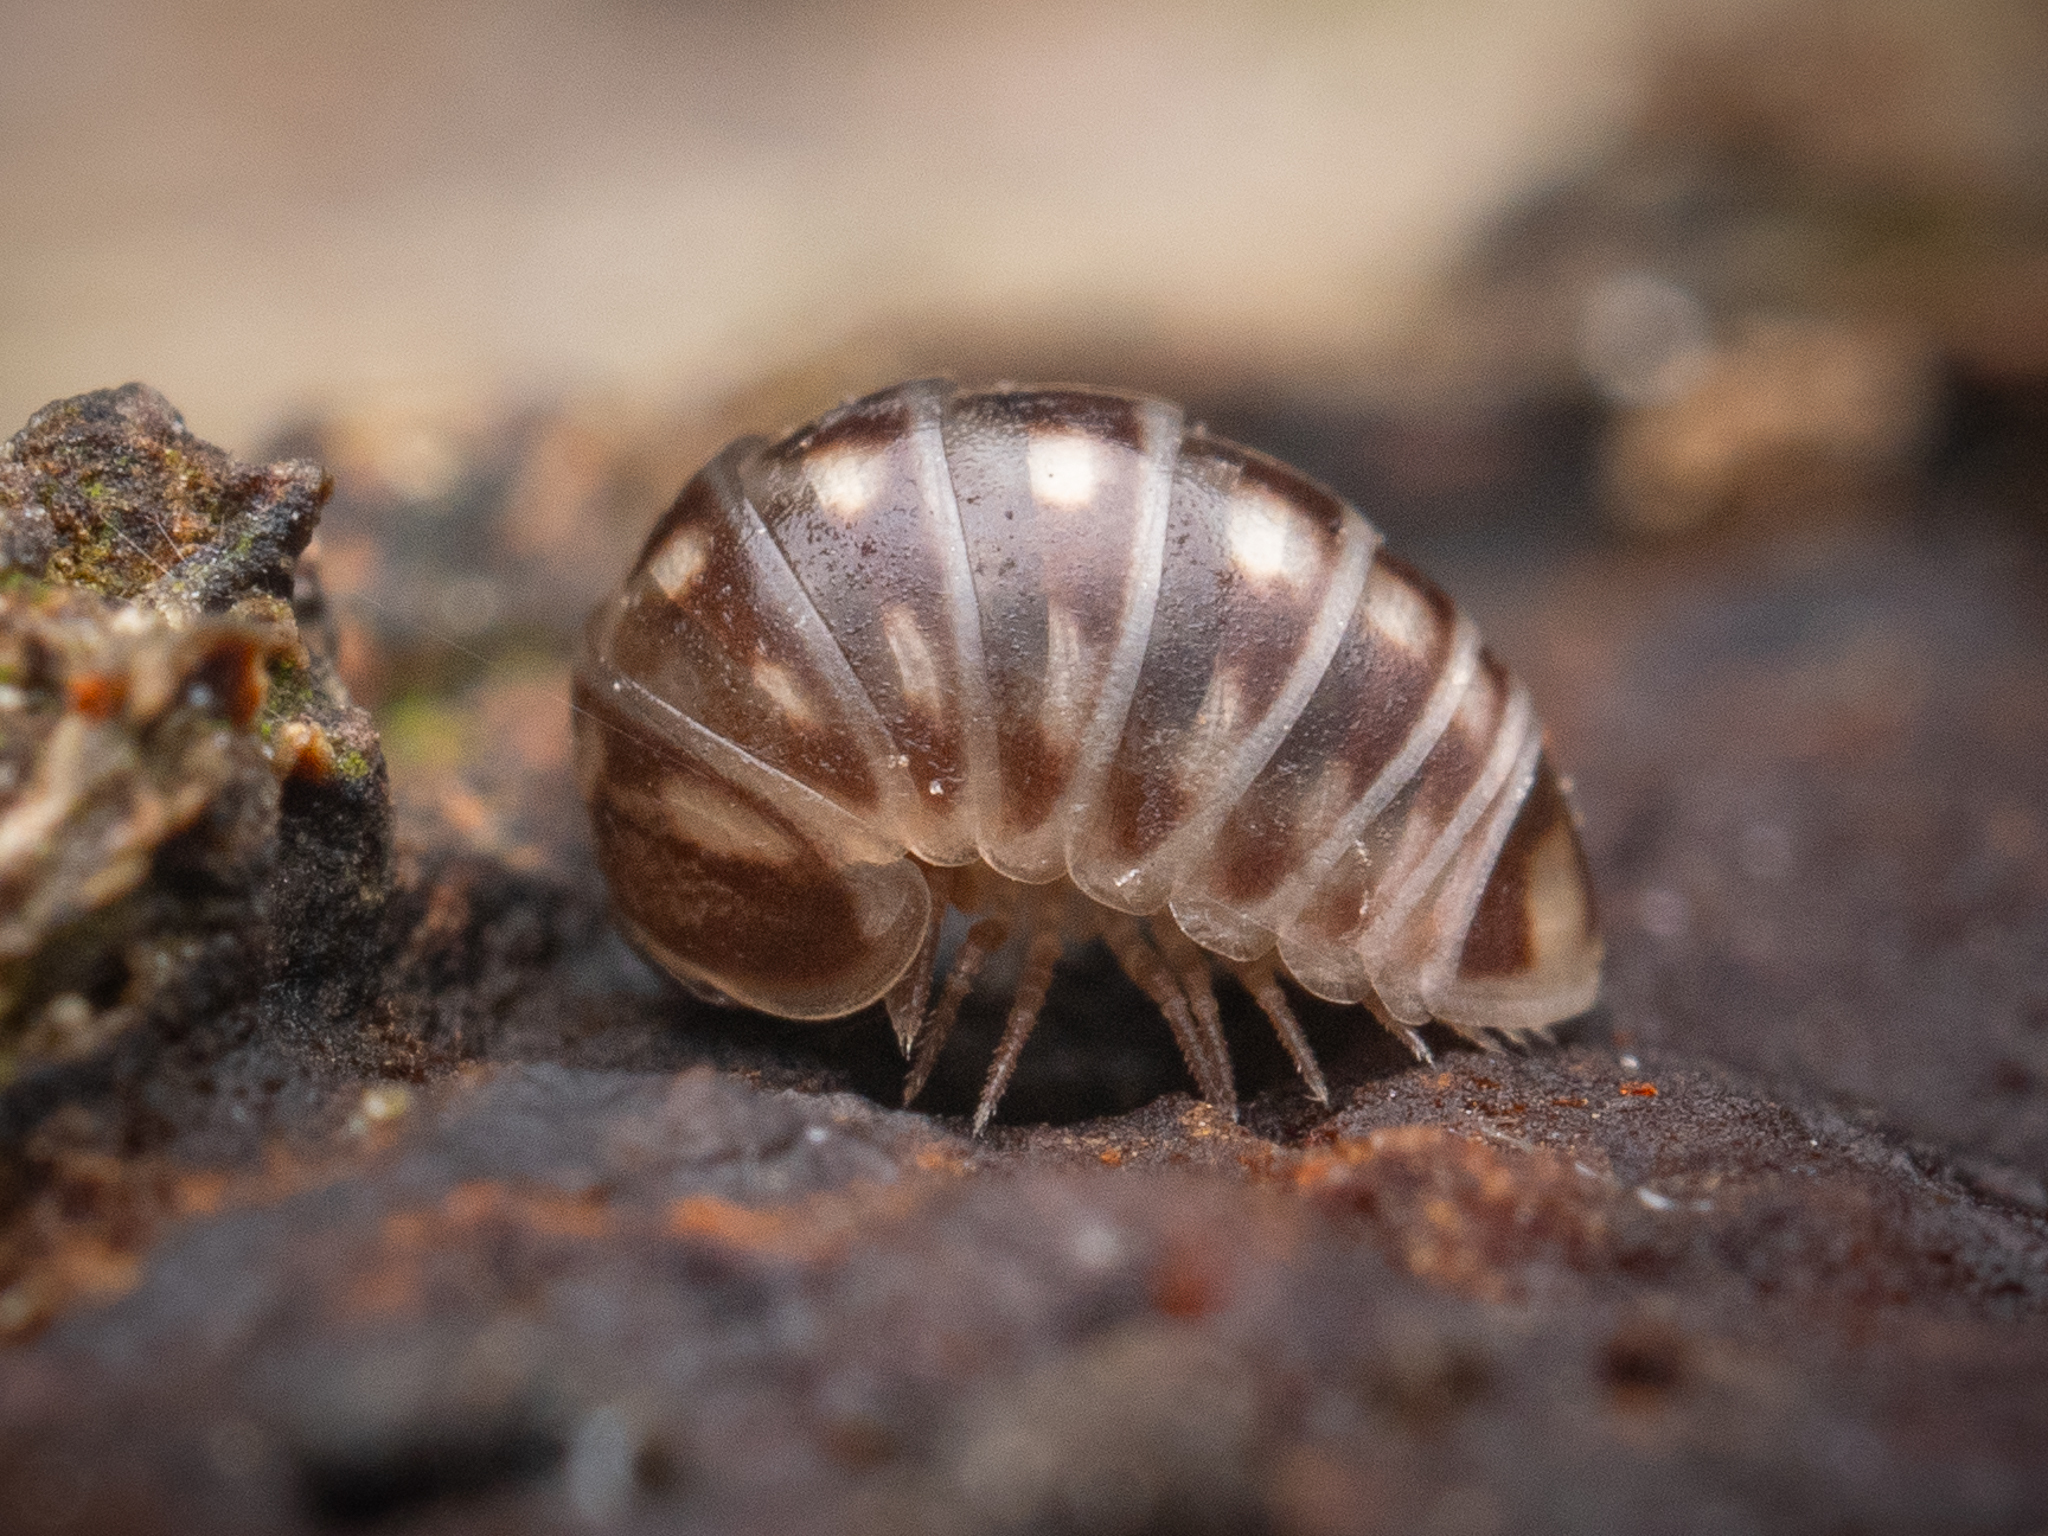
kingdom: Animalia
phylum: Arthropoda
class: Diplopoda
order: Glomerida
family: Glomeridae
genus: Glomeris
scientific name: Glomeris marginata
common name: Bordered pill millipede
